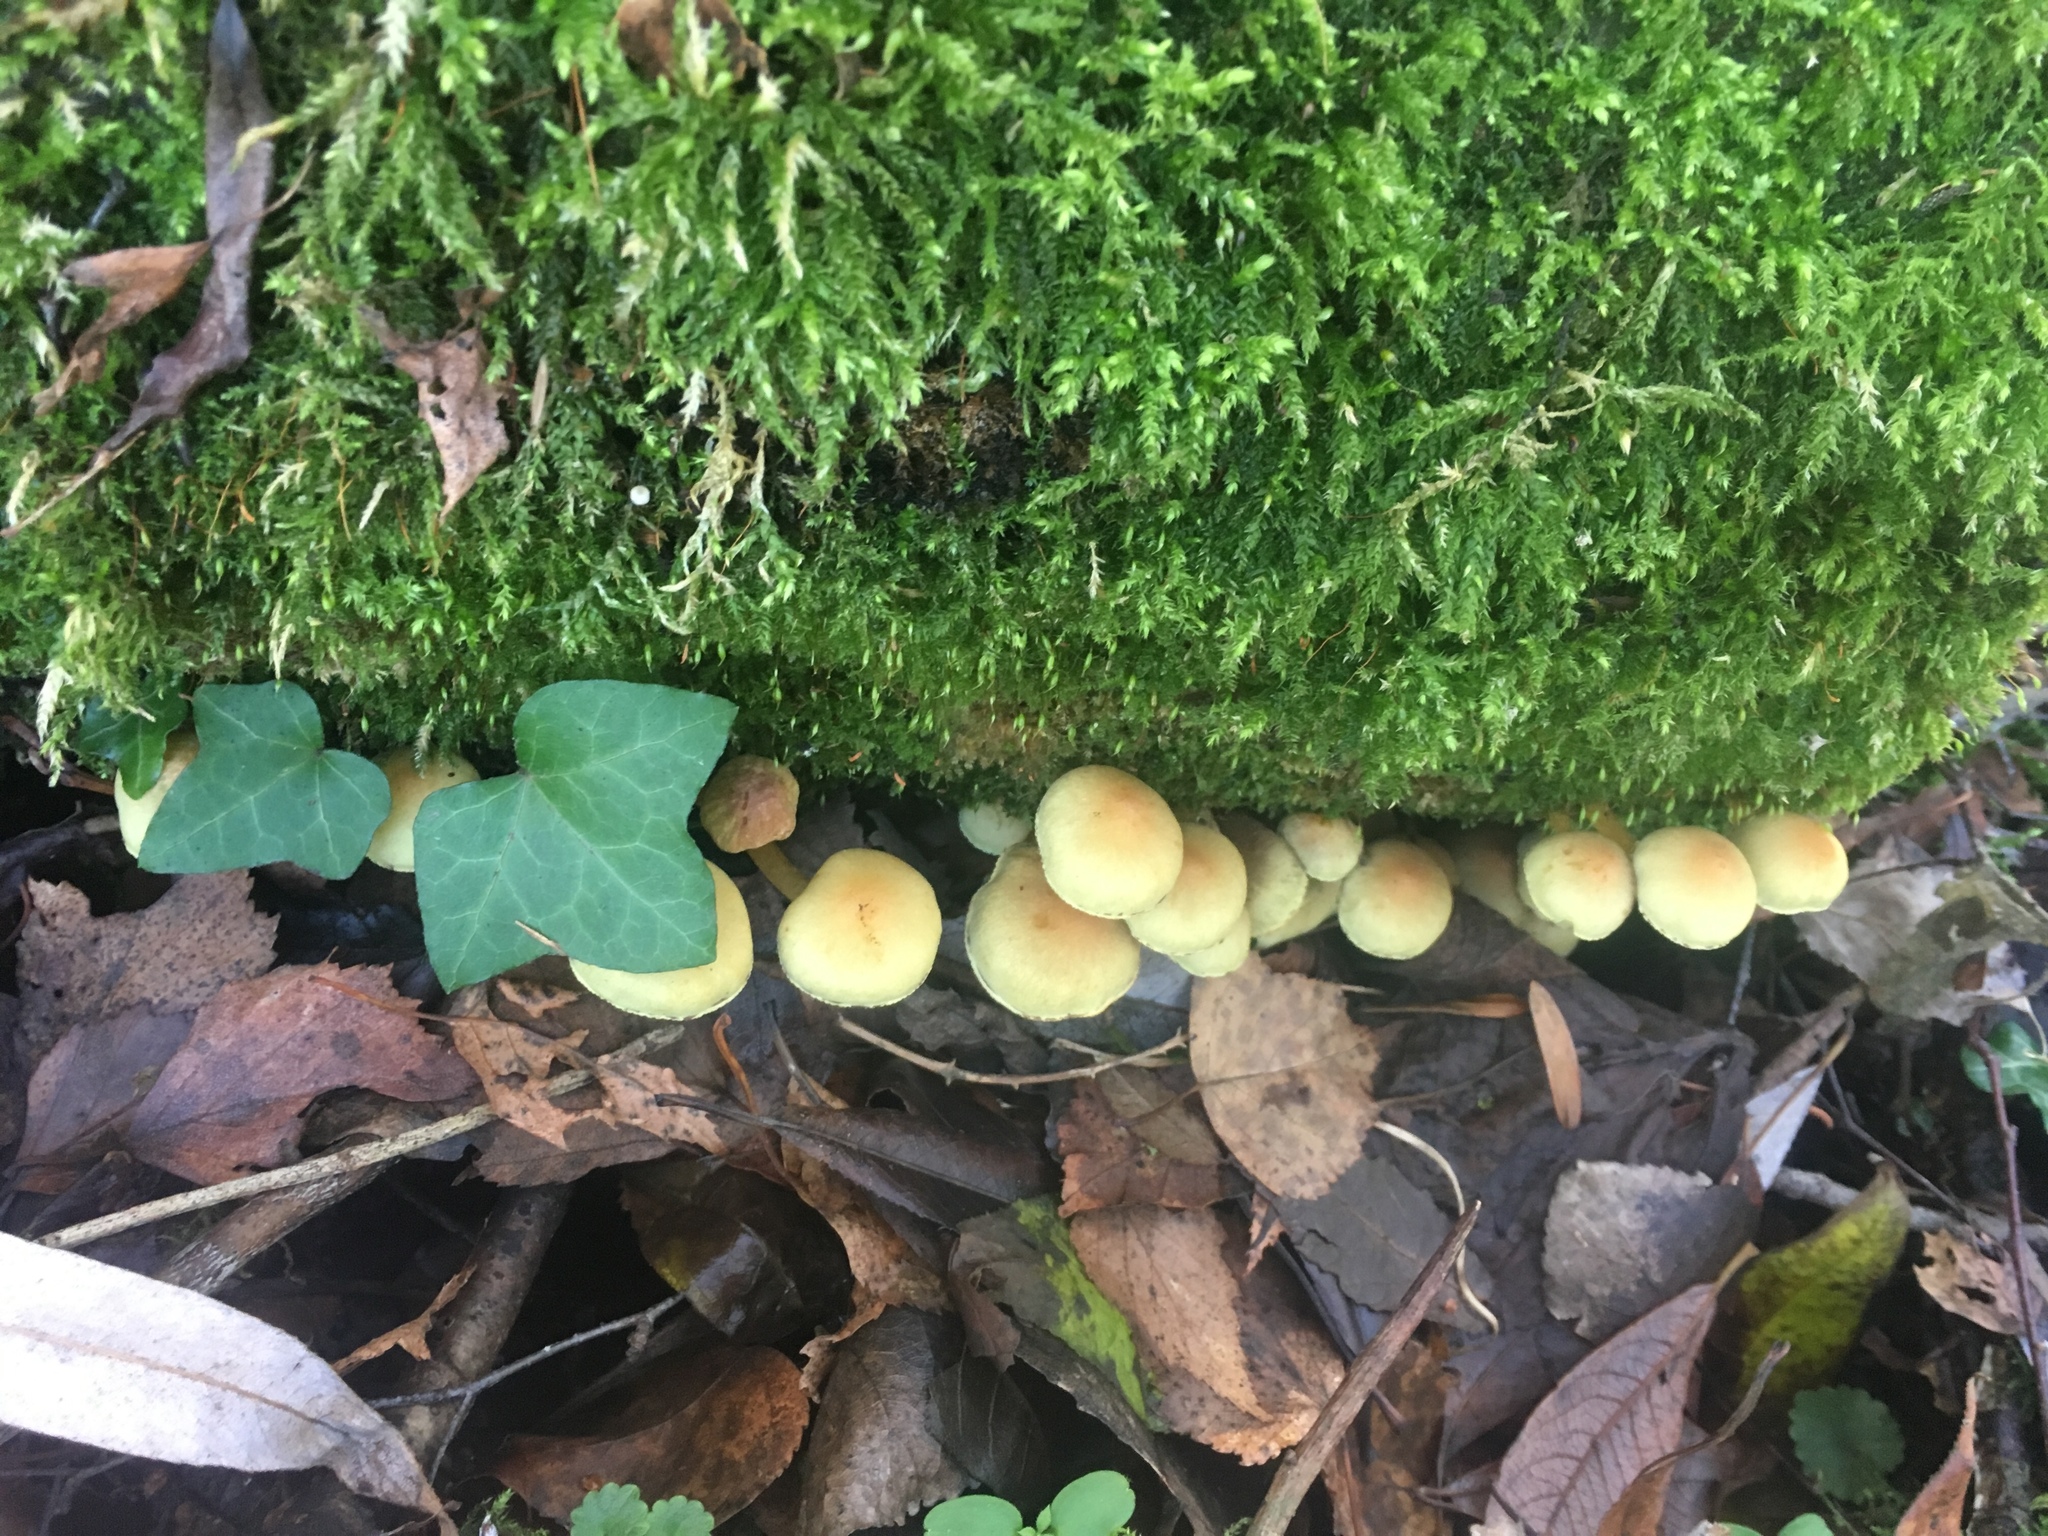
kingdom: Fungi
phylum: Basidiomycota
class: Agaricomycetes
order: Agaricales
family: Strophariaceae
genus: Hypholoma
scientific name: Hypholoma fasciculare
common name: Sulphur tuft
